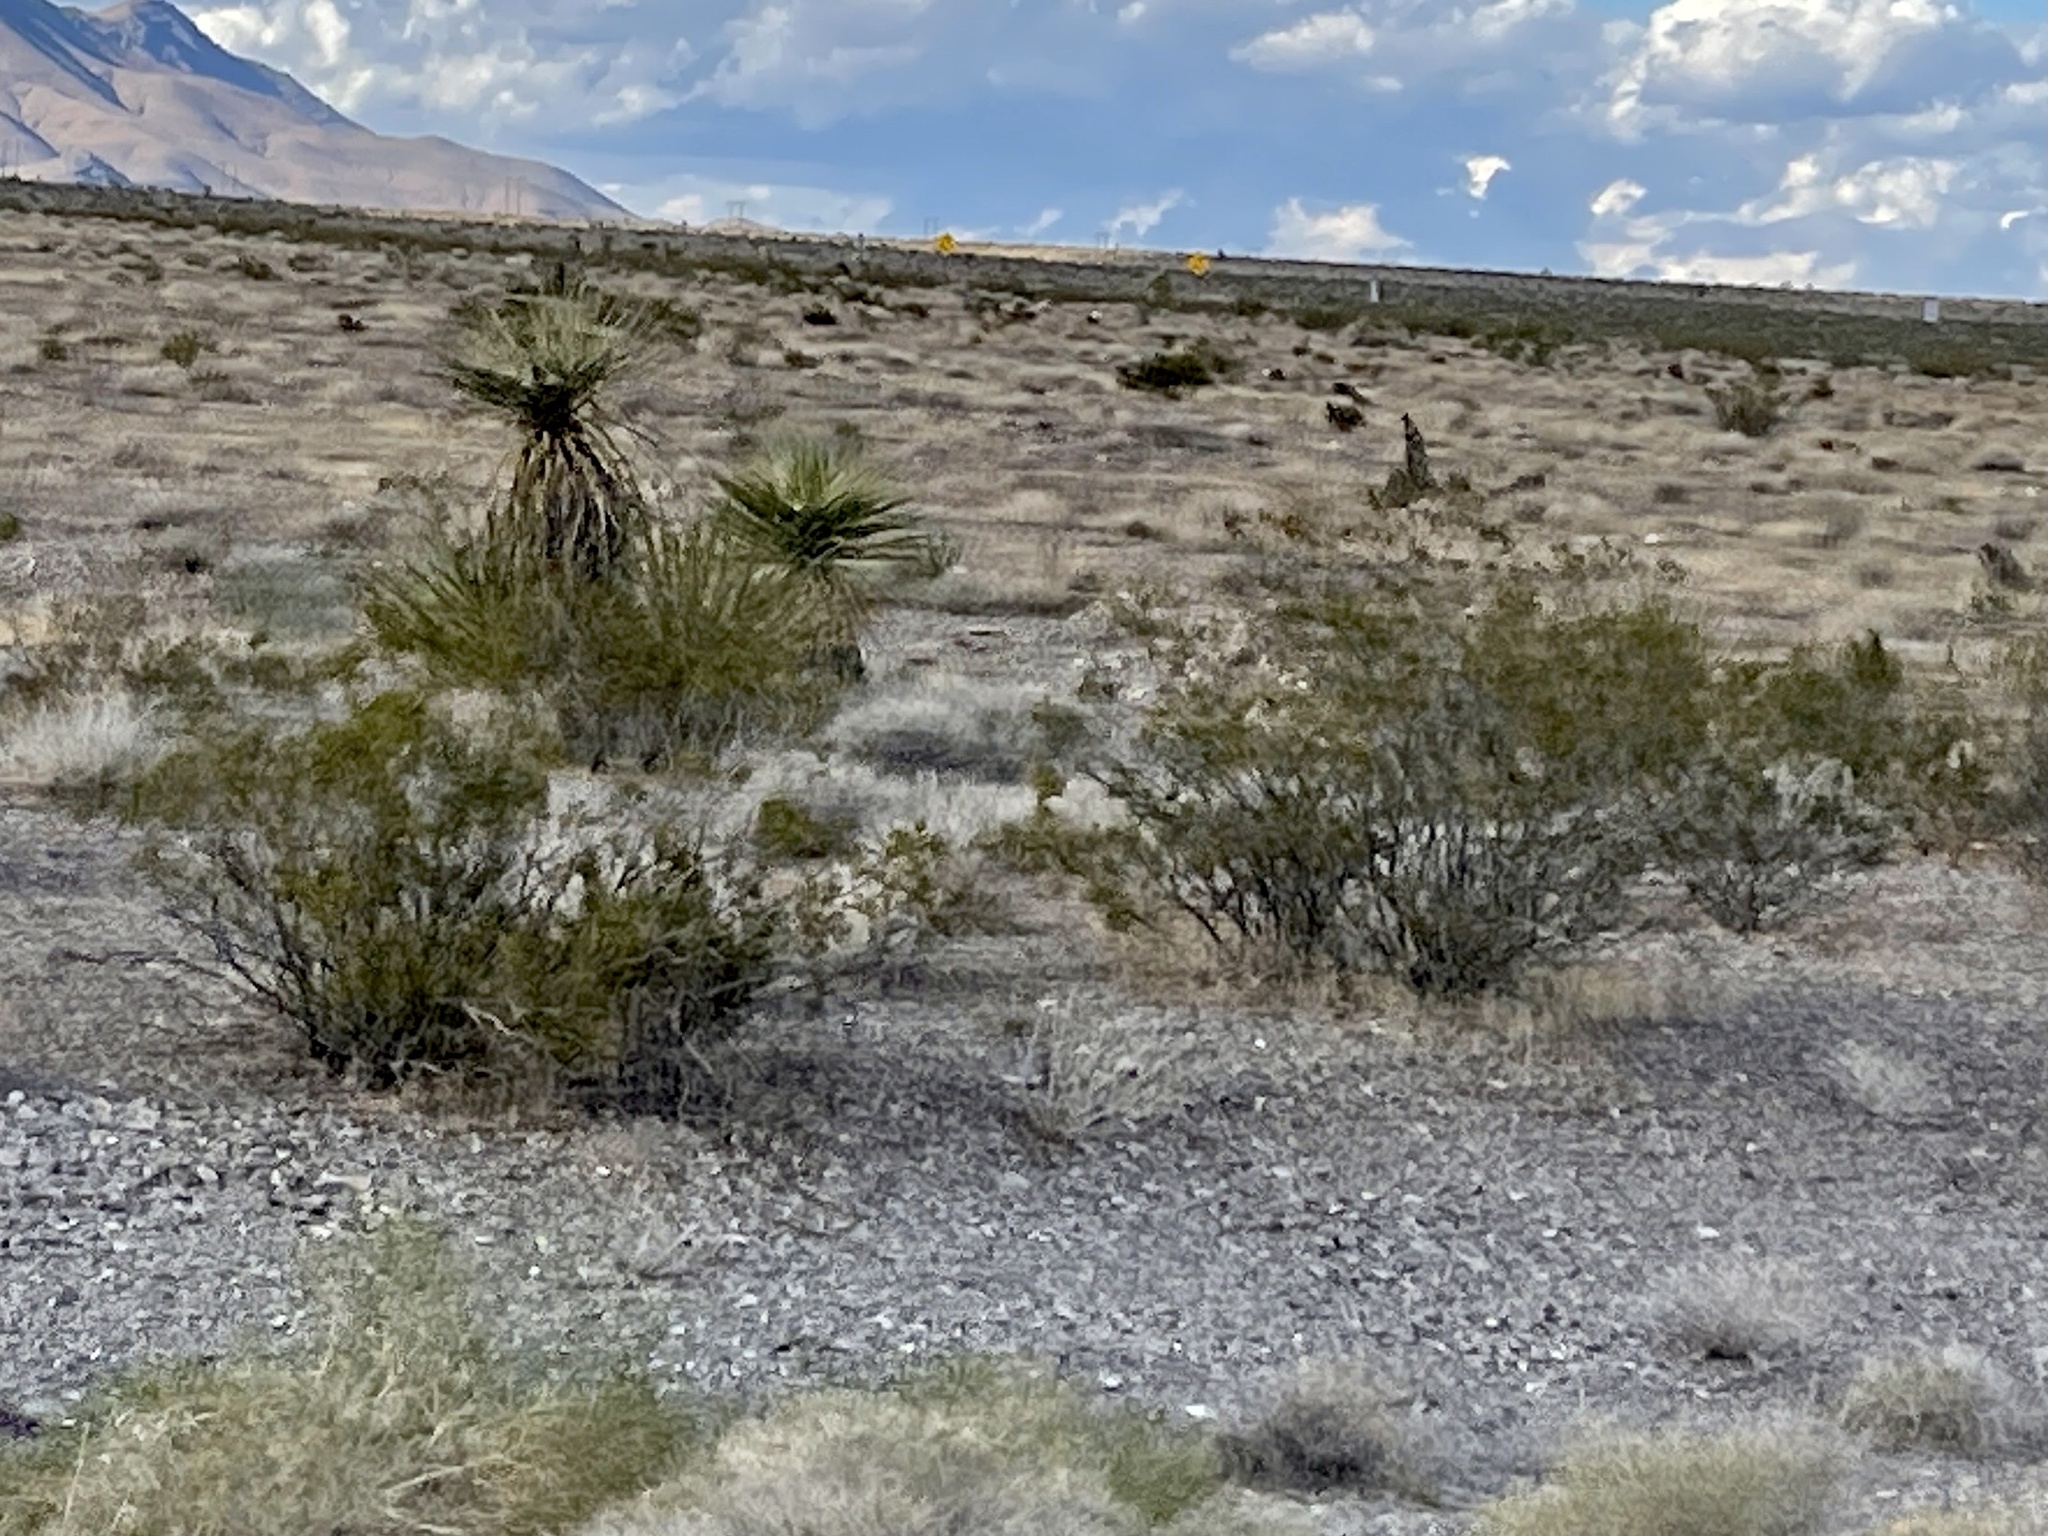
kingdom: Plantae
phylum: Tracheophyta
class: Magnoliopsida
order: Zygophyllales
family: Zygophyllaceae
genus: Larrea
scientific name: Larrea tridentata
